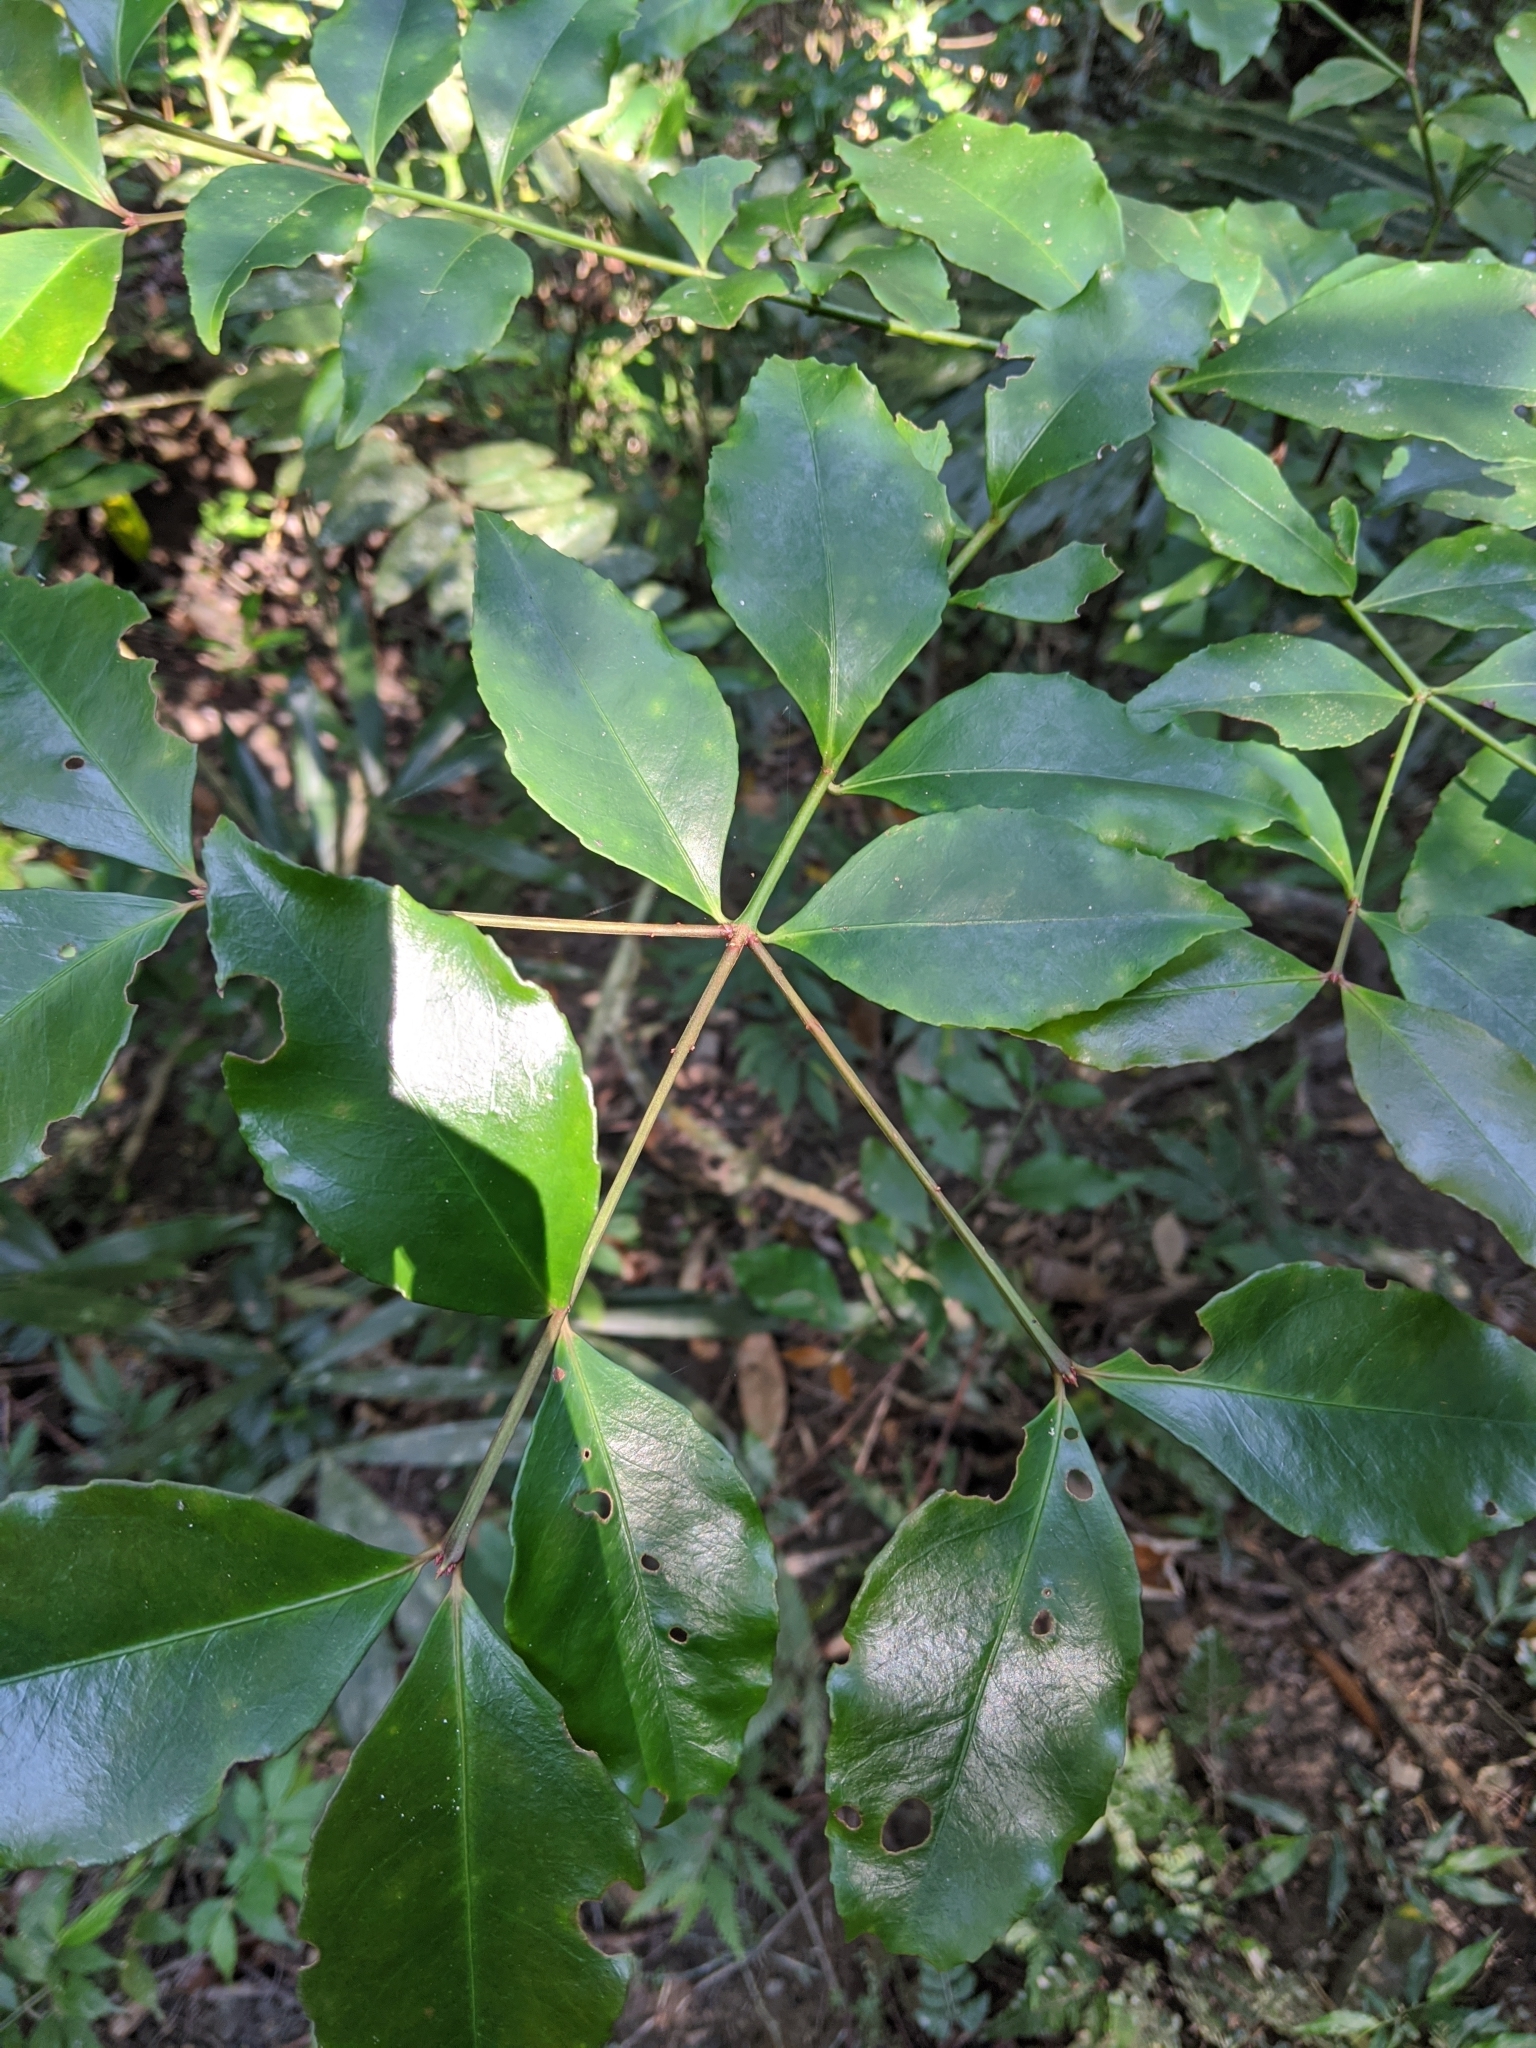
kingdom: Plantae
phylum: Tracheophyta
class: Magnoliopsida
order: Celastrales
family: Celastraceae
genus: Euonymus
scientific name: Euonymus laxiflorus
